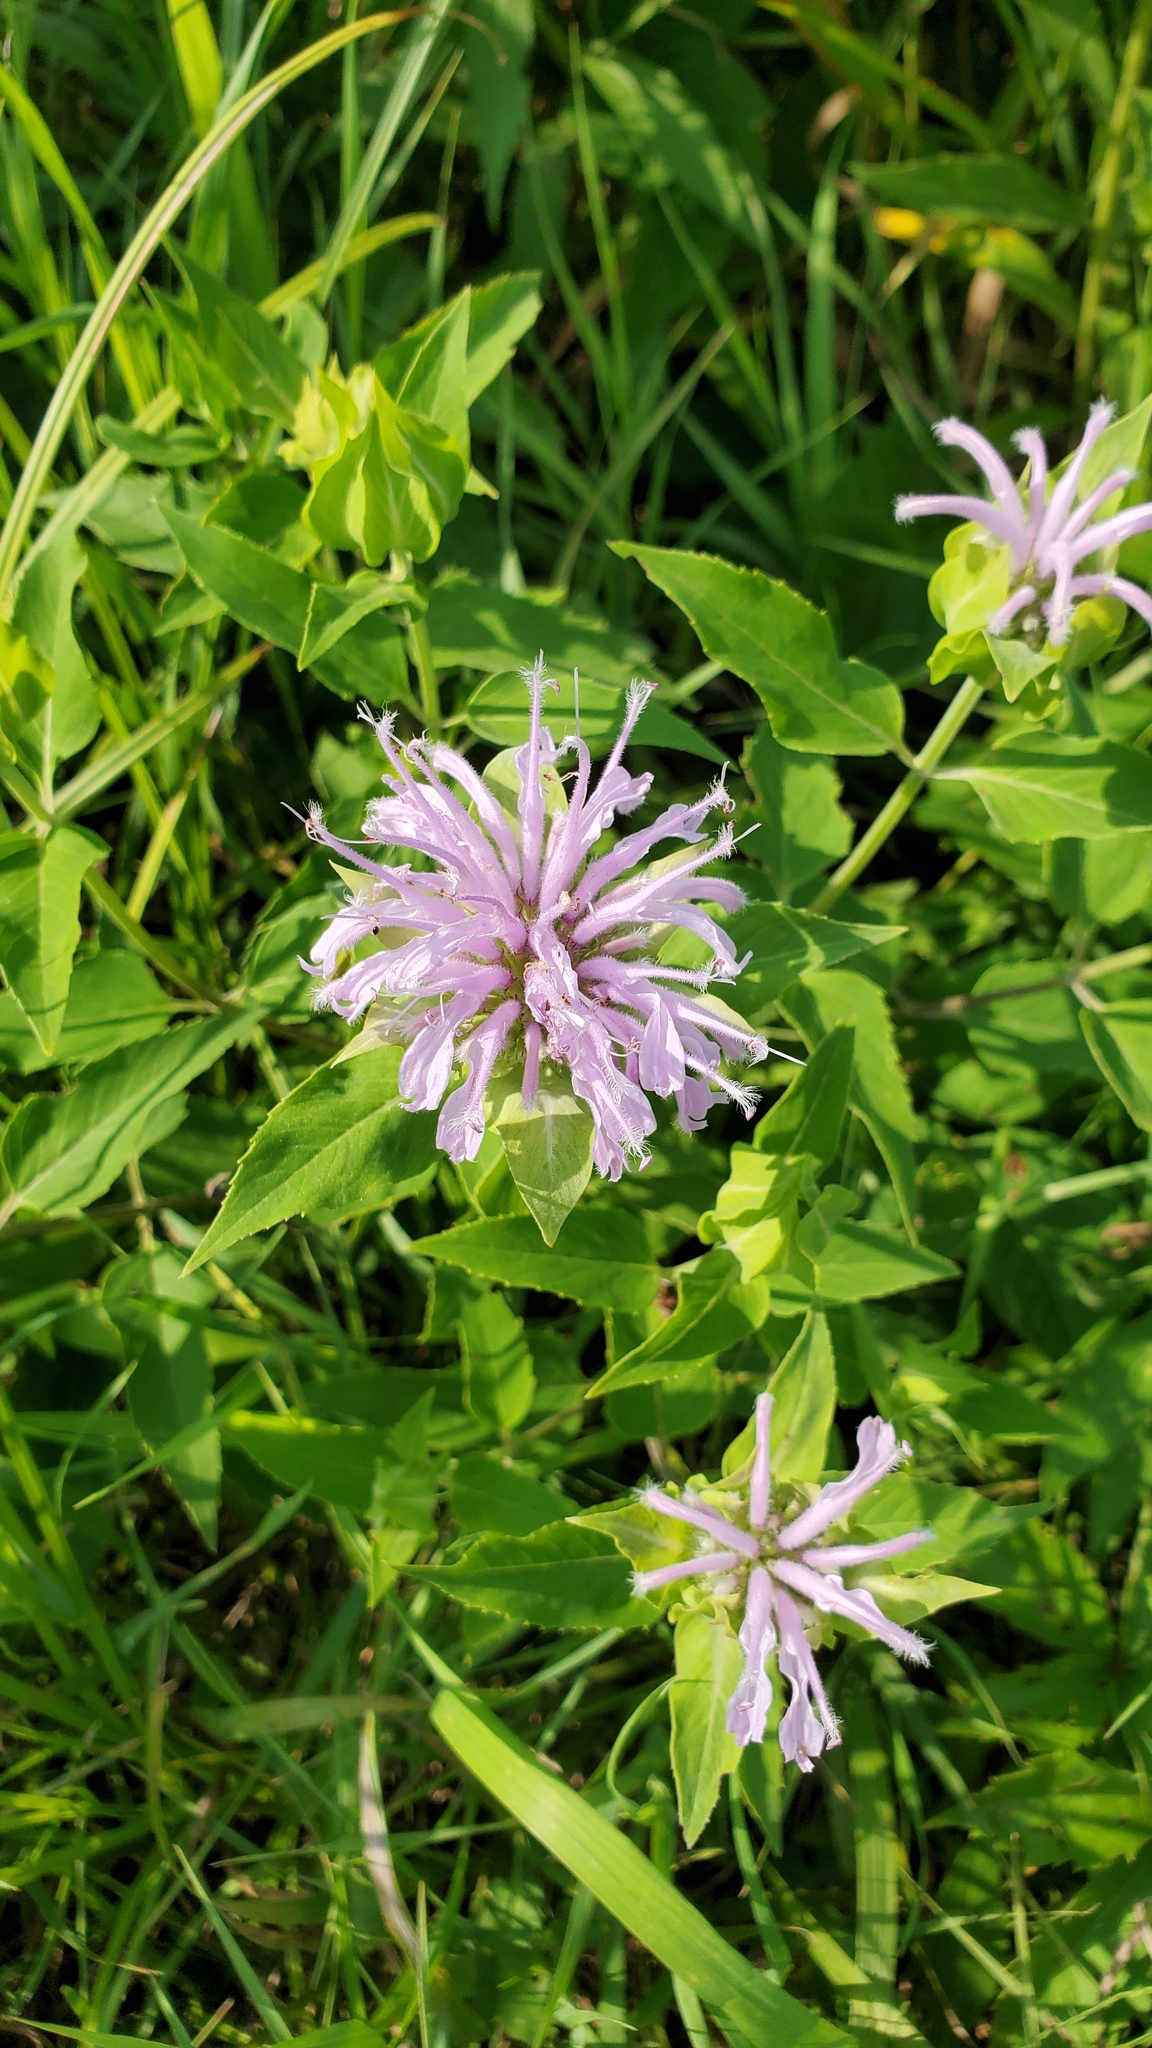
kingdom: Plantae
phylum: Tracheophyta
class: Magnoliopsida
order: Lamiales
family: Lamiaceae
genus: Monarda
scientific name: Monarda fistulosa
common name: Purple beebalm
